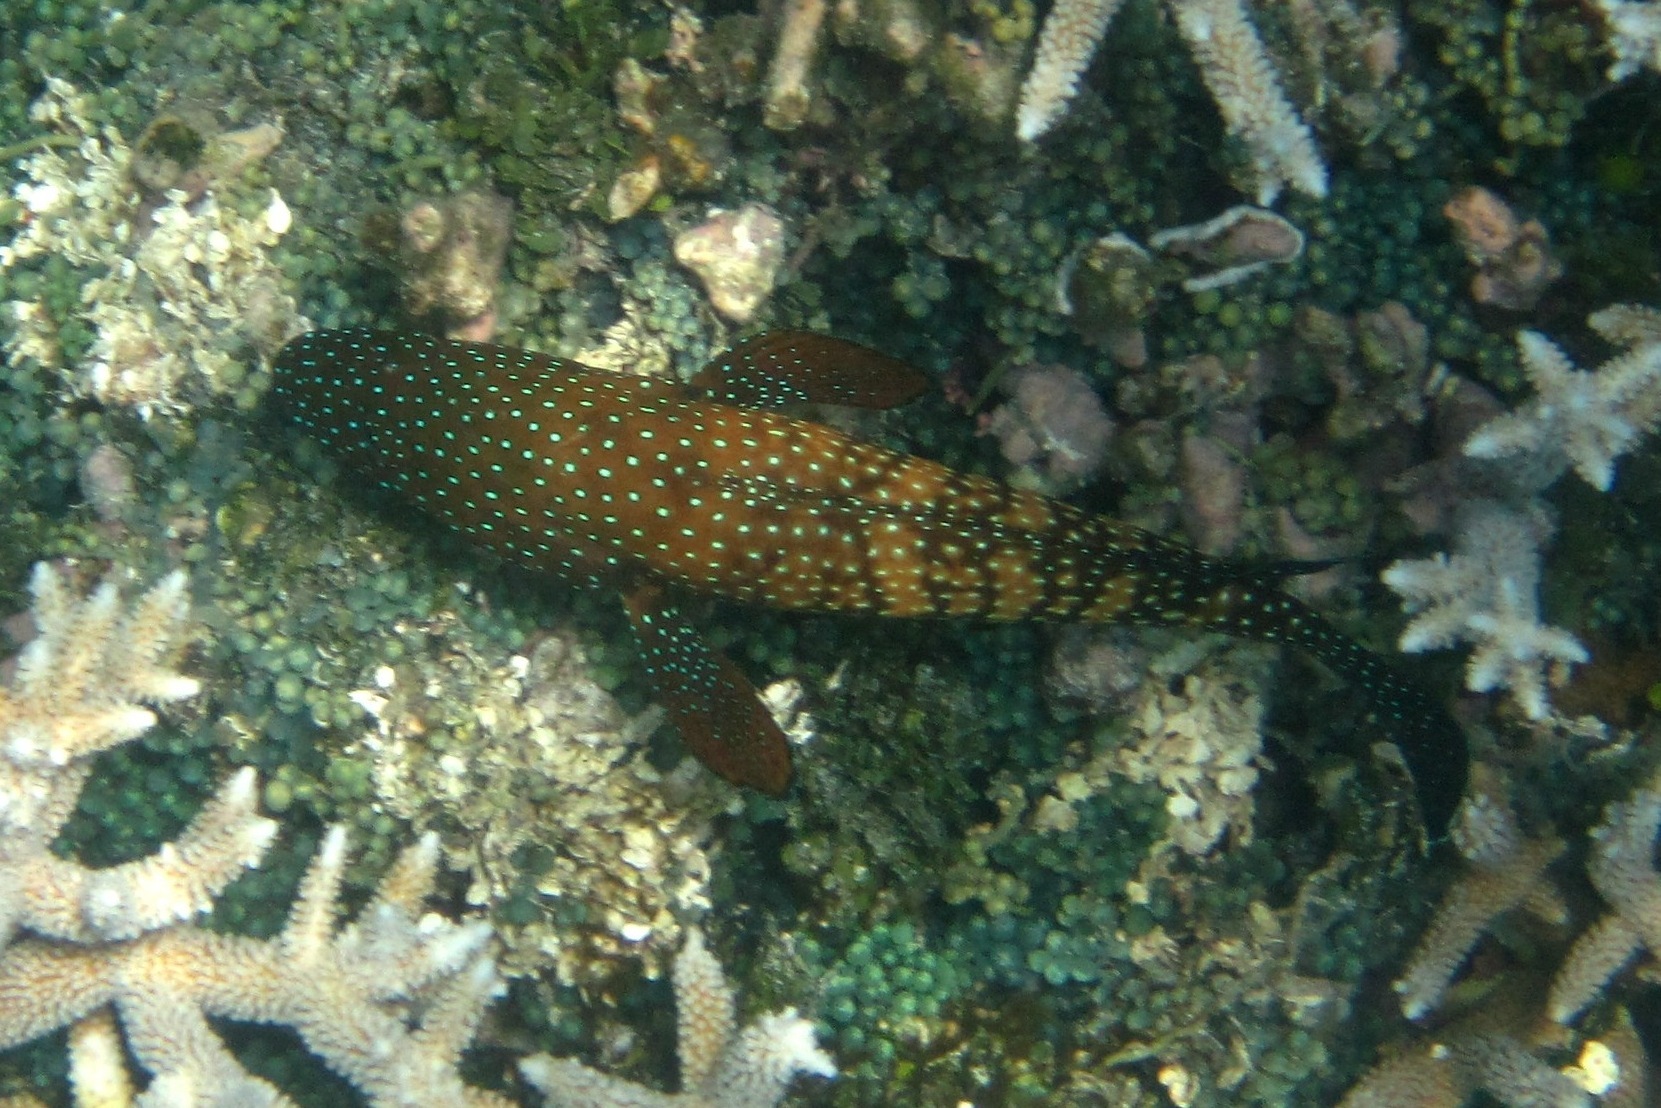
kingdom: Animalia
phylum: Chordata
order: Perciformes
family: Serranidae
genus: Cephalopholis
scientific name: Cephalopholis cyanostigma
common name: Bluespotted hind
